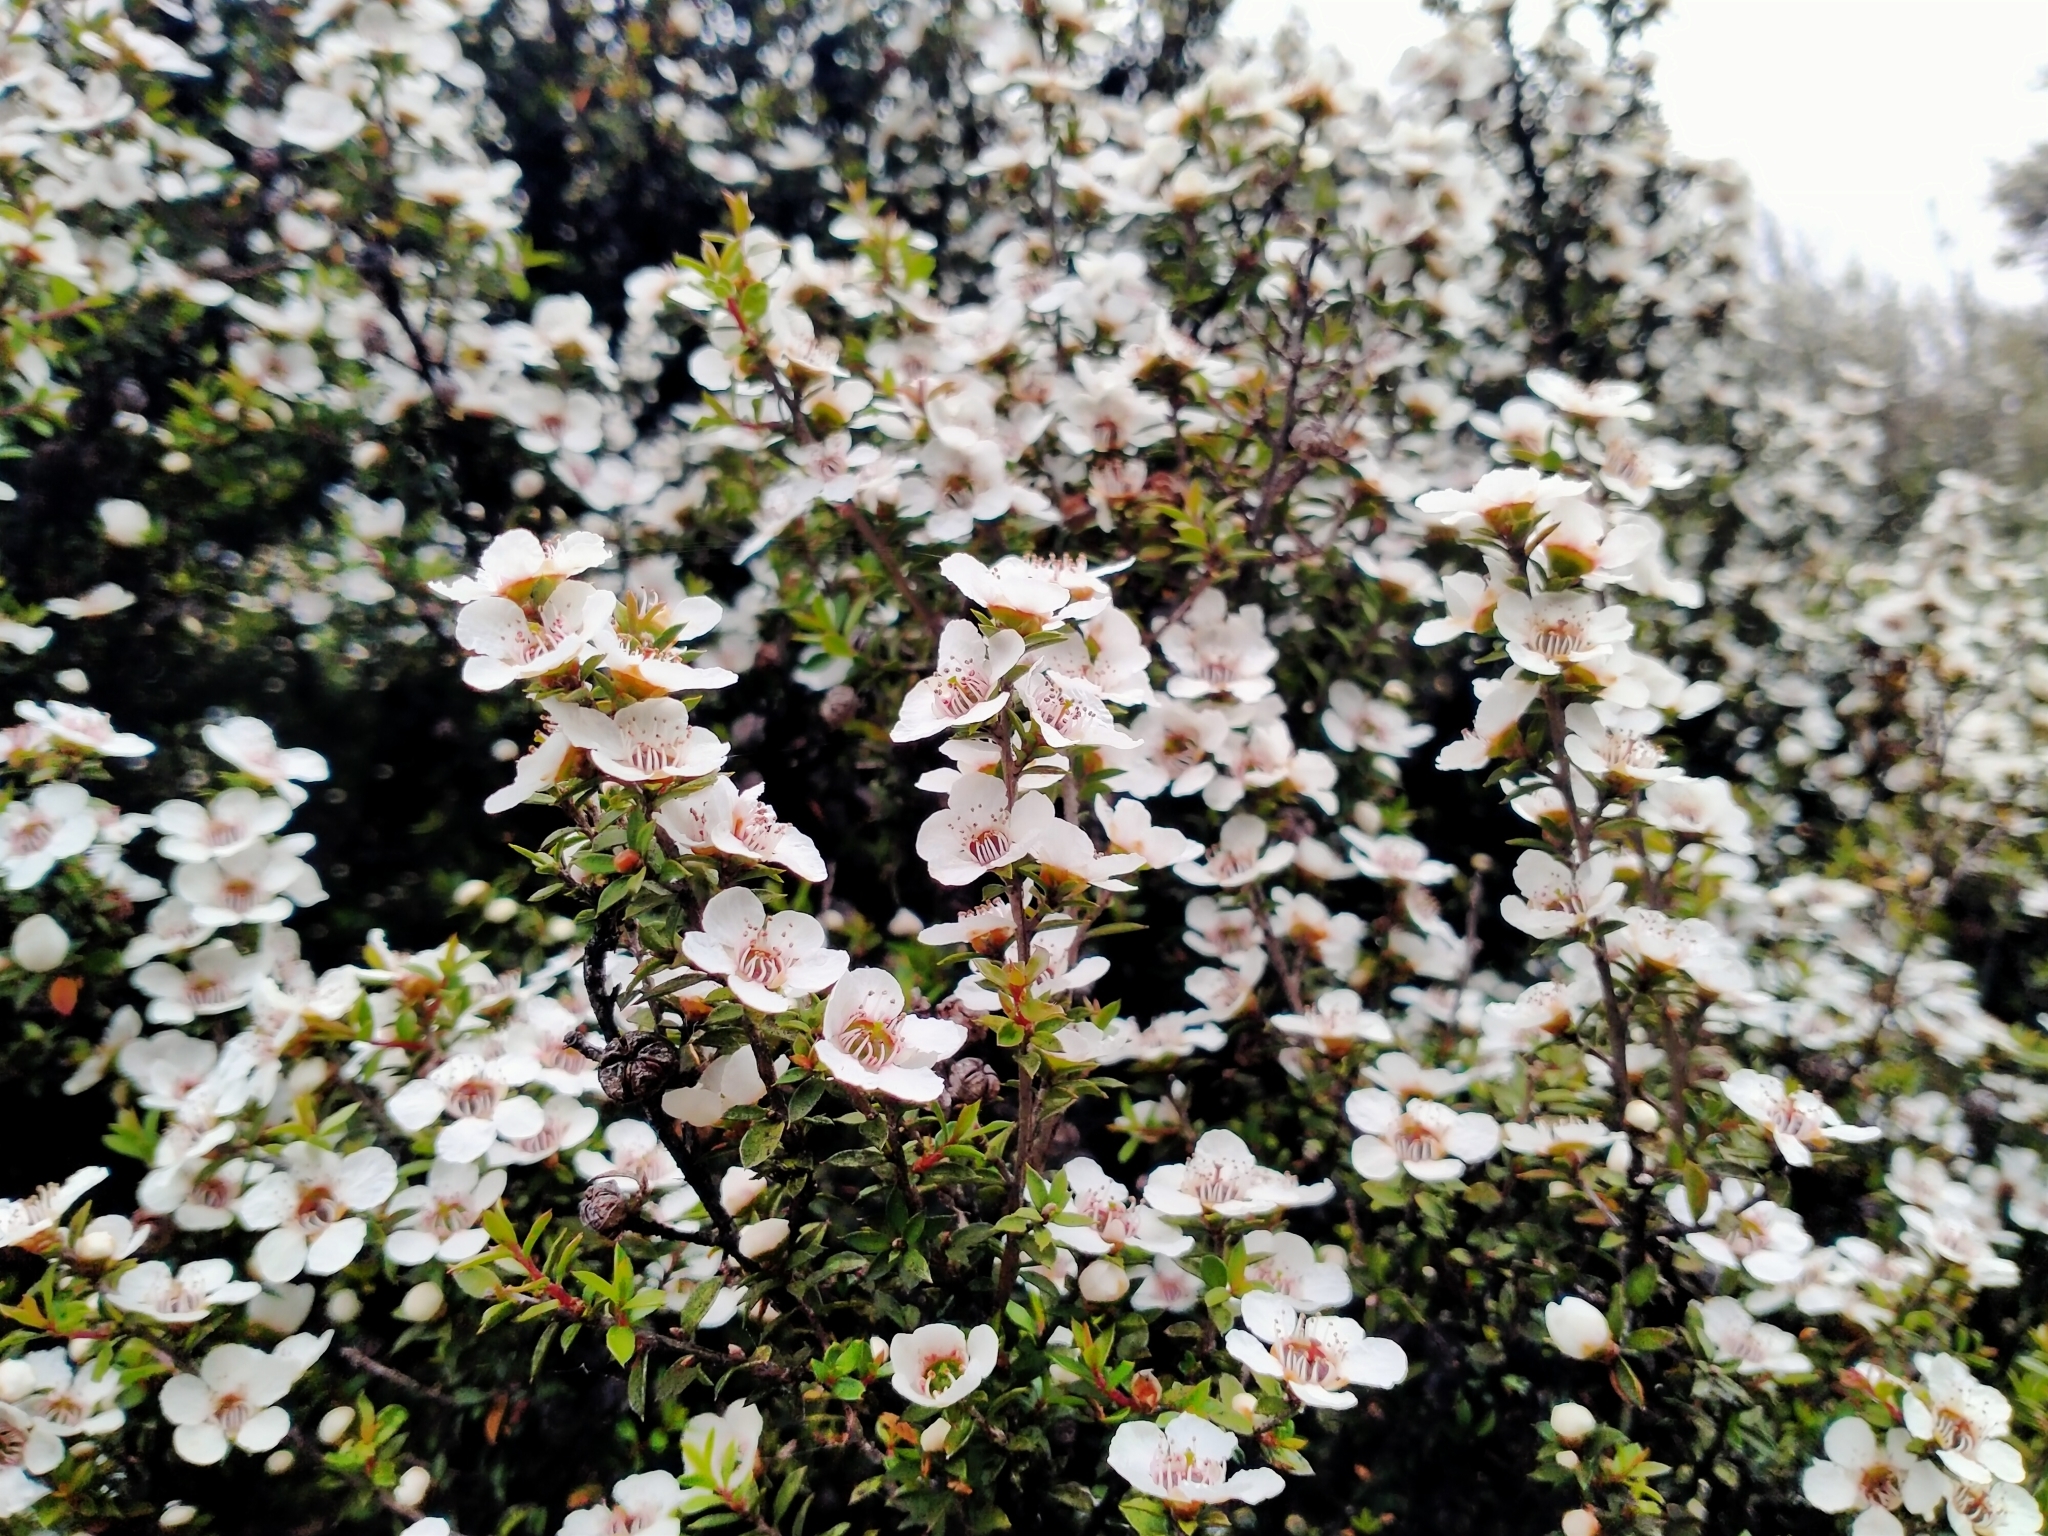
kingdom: Plantae
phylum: Tracheophyta
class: Magnoliopsida
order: Myrtales
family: Myrtaceae
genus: Leptospermum
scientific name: Leptospermum scoparium
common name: Broom tea-tree
